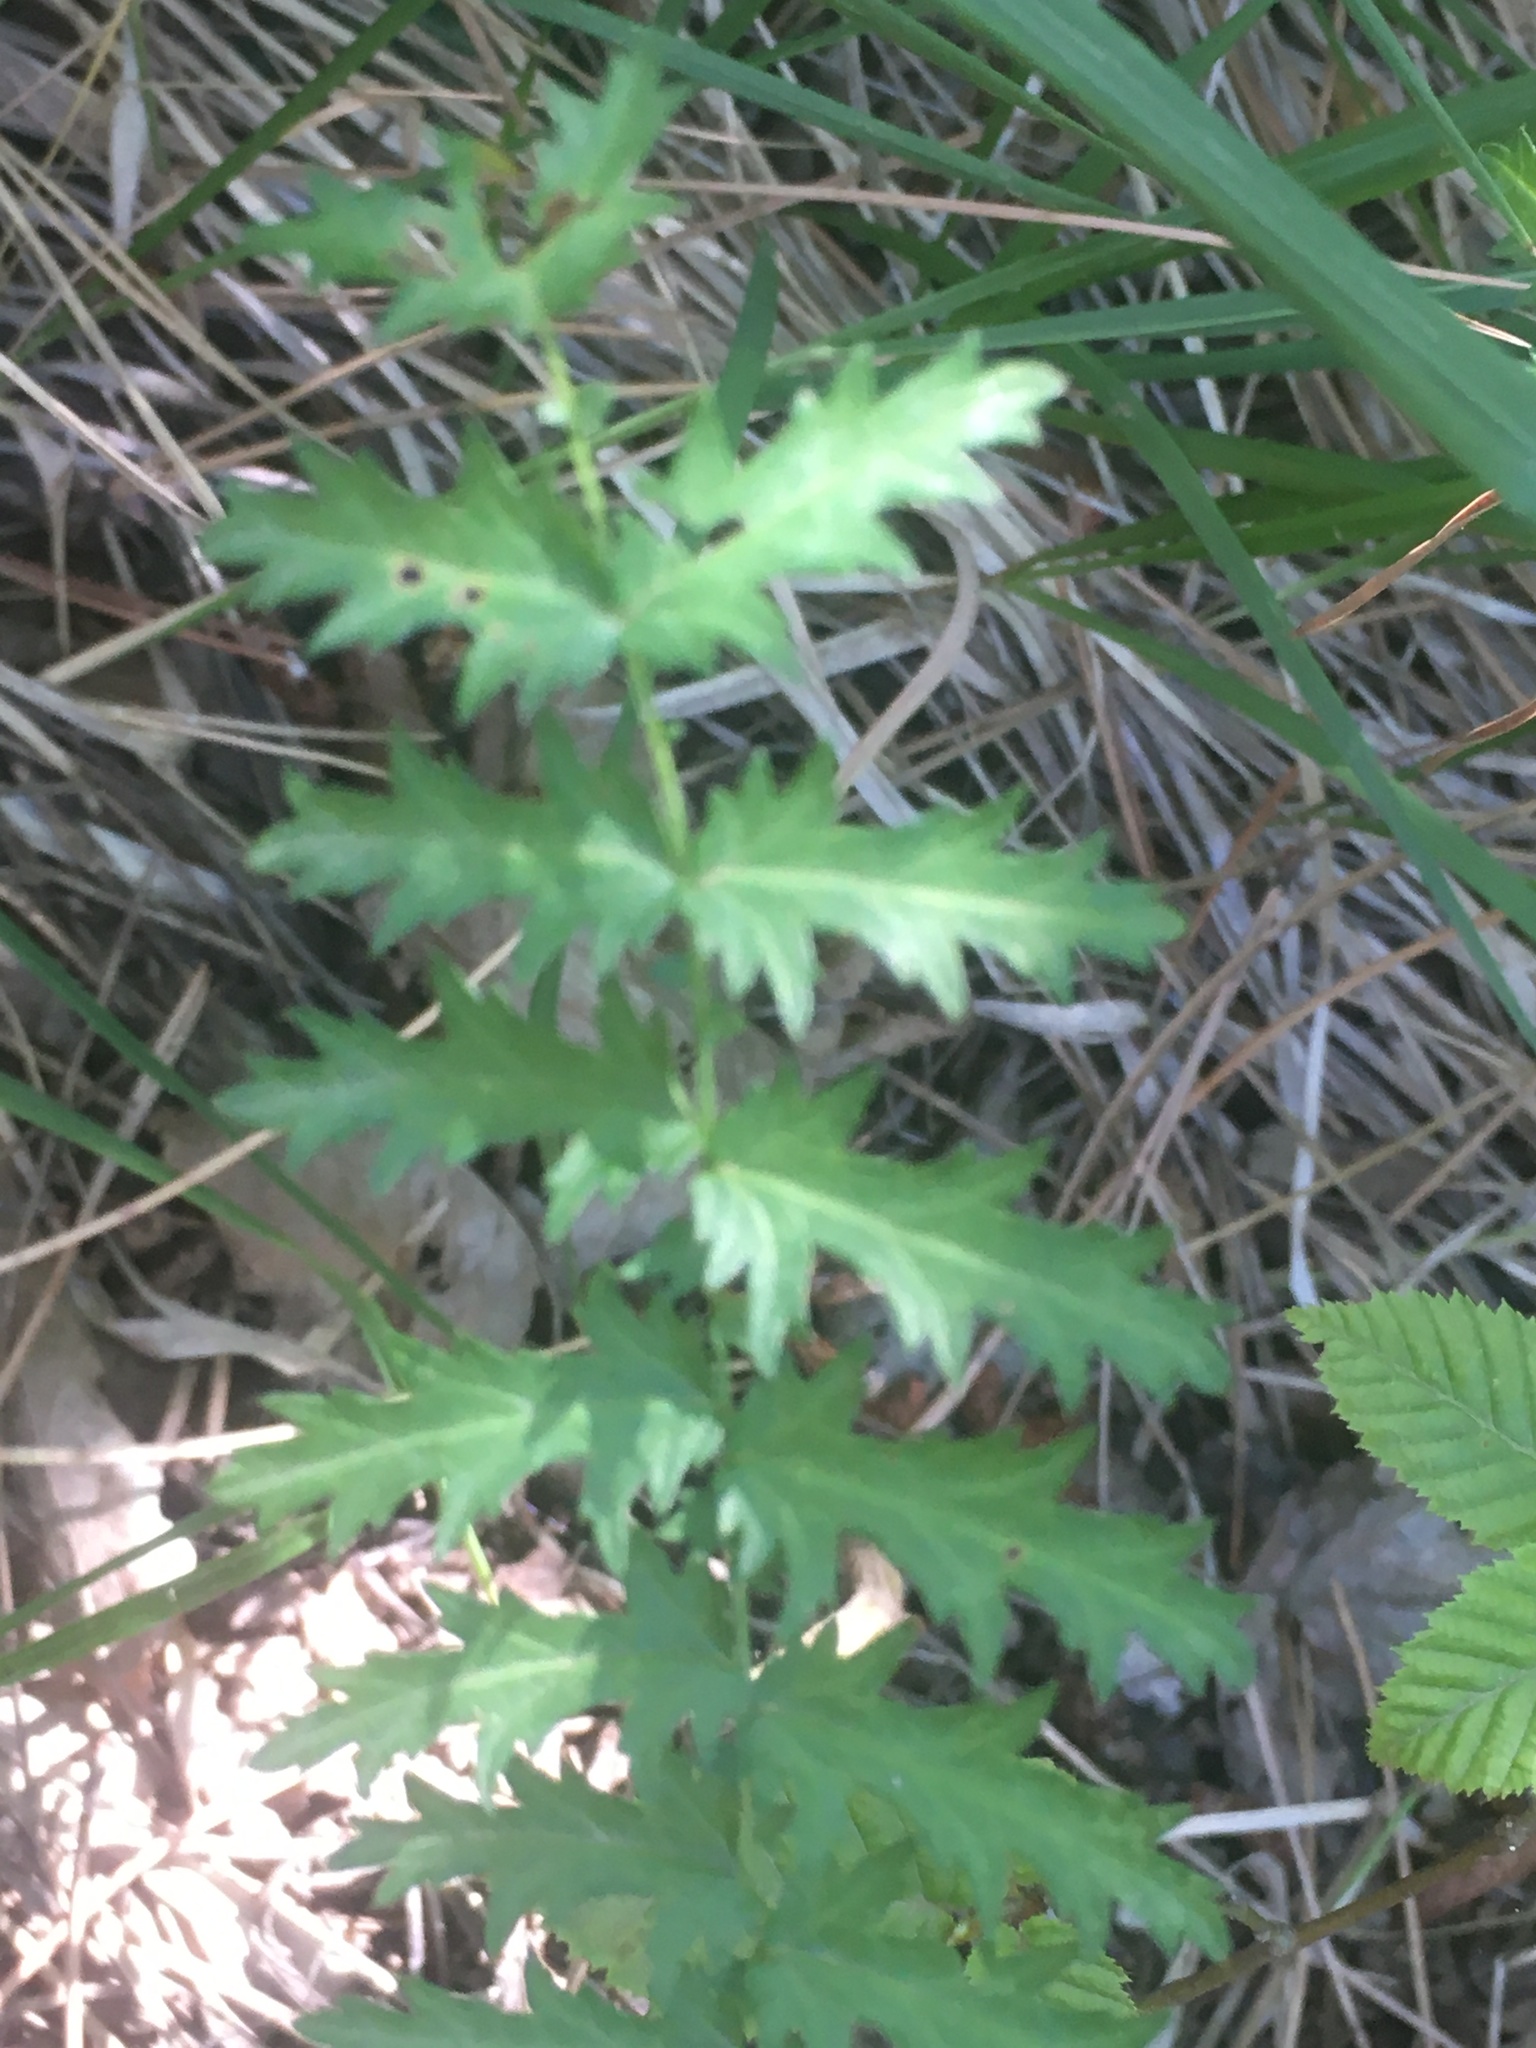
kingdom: Plantae
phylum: Tracheophyta
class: Magnoliopsida
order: Rosales
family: Rosaceae
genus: Filipendula
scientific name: Filipendula vulgaris
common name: Dropwort
